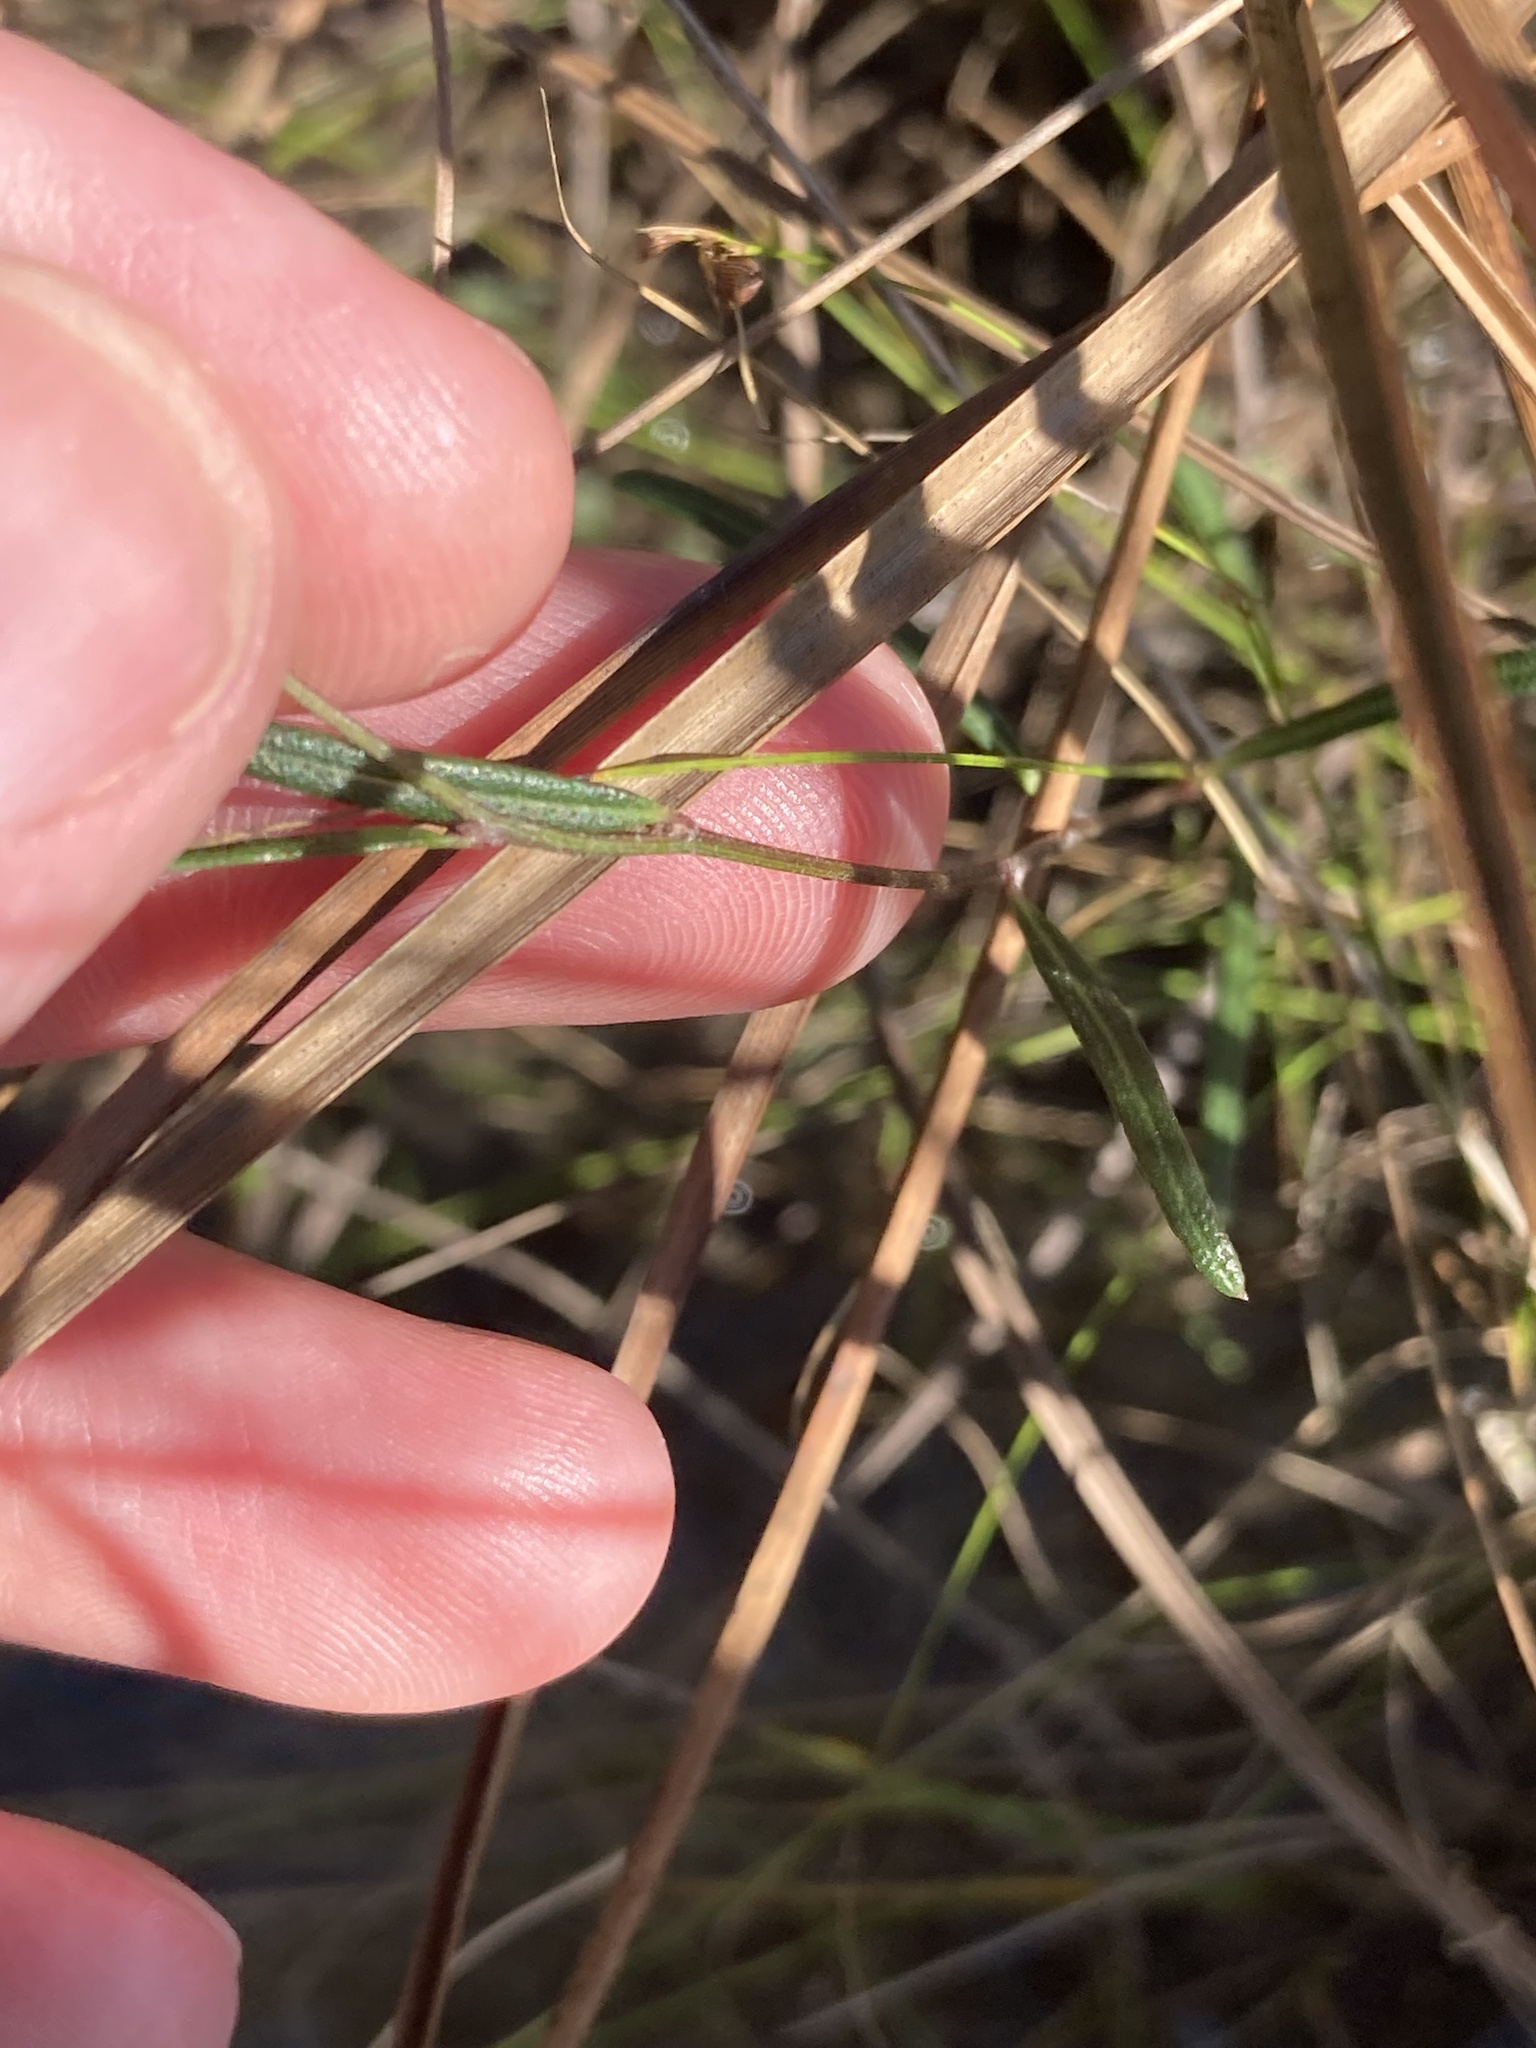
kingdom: Plantae
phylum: Tracheophyta
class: Magnoliopsida
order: Asterales
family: Asteraceae
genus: Vernonia
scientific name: Vernonia blodgettii
